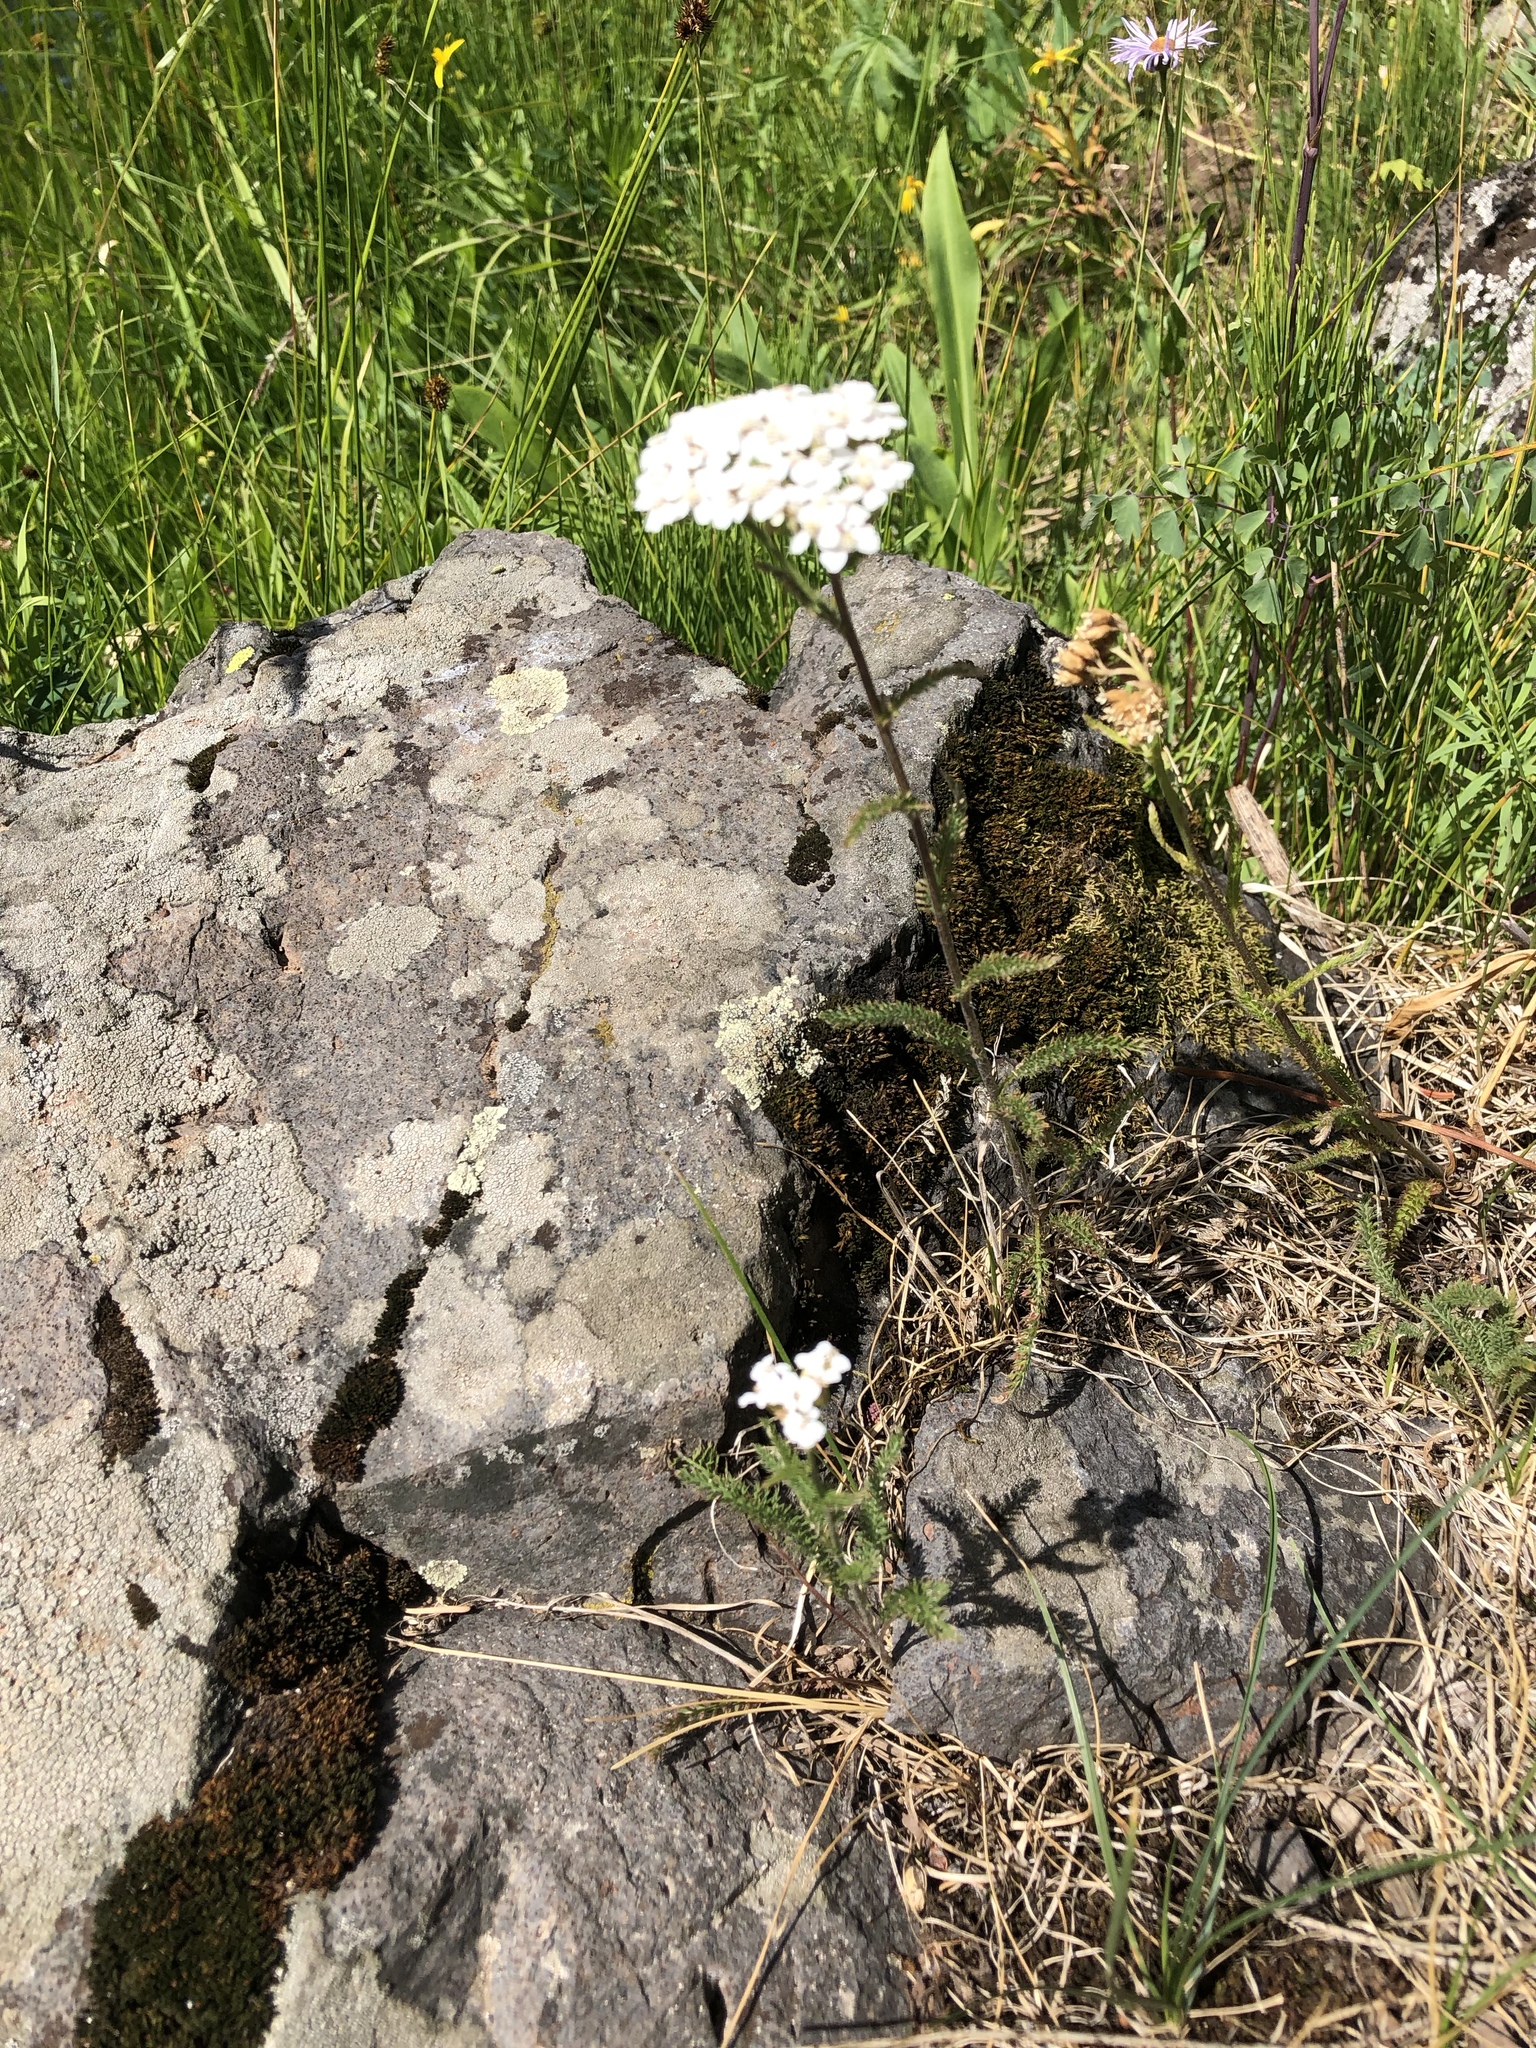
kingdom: Plantae
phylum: Tracheophyta
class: Magnoliopsida
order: Asterales
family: Asteraceae
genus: Achillea
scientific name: Achillea millefolium
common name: Yarrow
